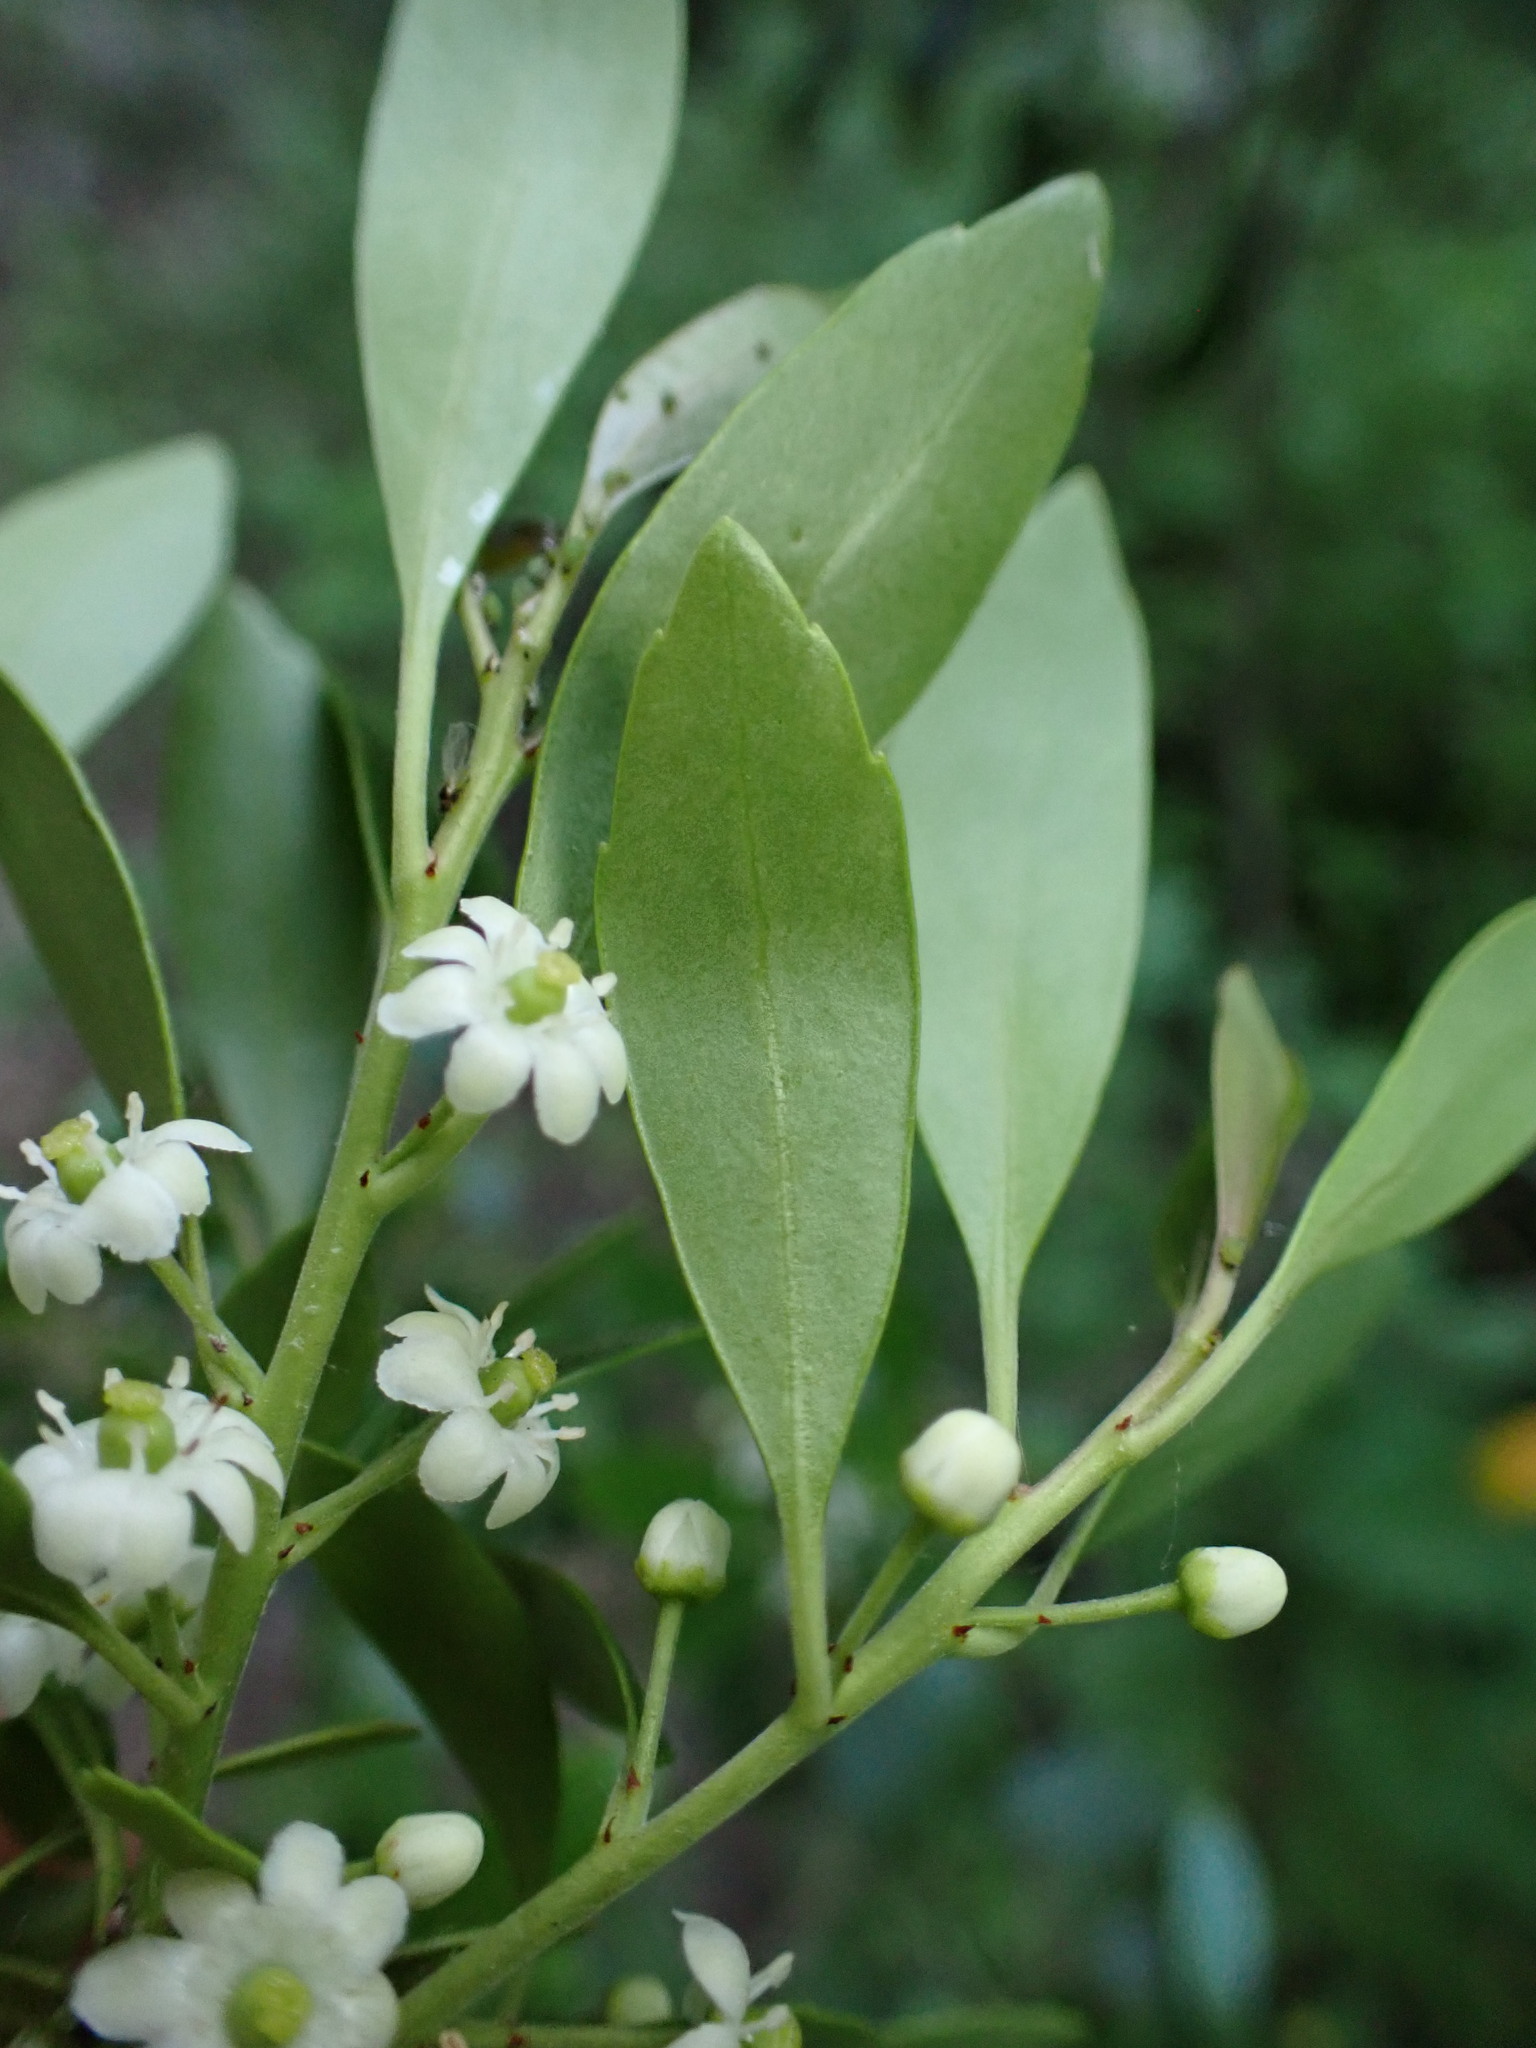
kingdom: Plantae
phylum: Tracheophyta
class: Magnoliopsida
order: Aquifoliales
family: Aquifoliaceae
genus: Ilex
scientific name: Ilex glabra
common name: Bitter gallberry
